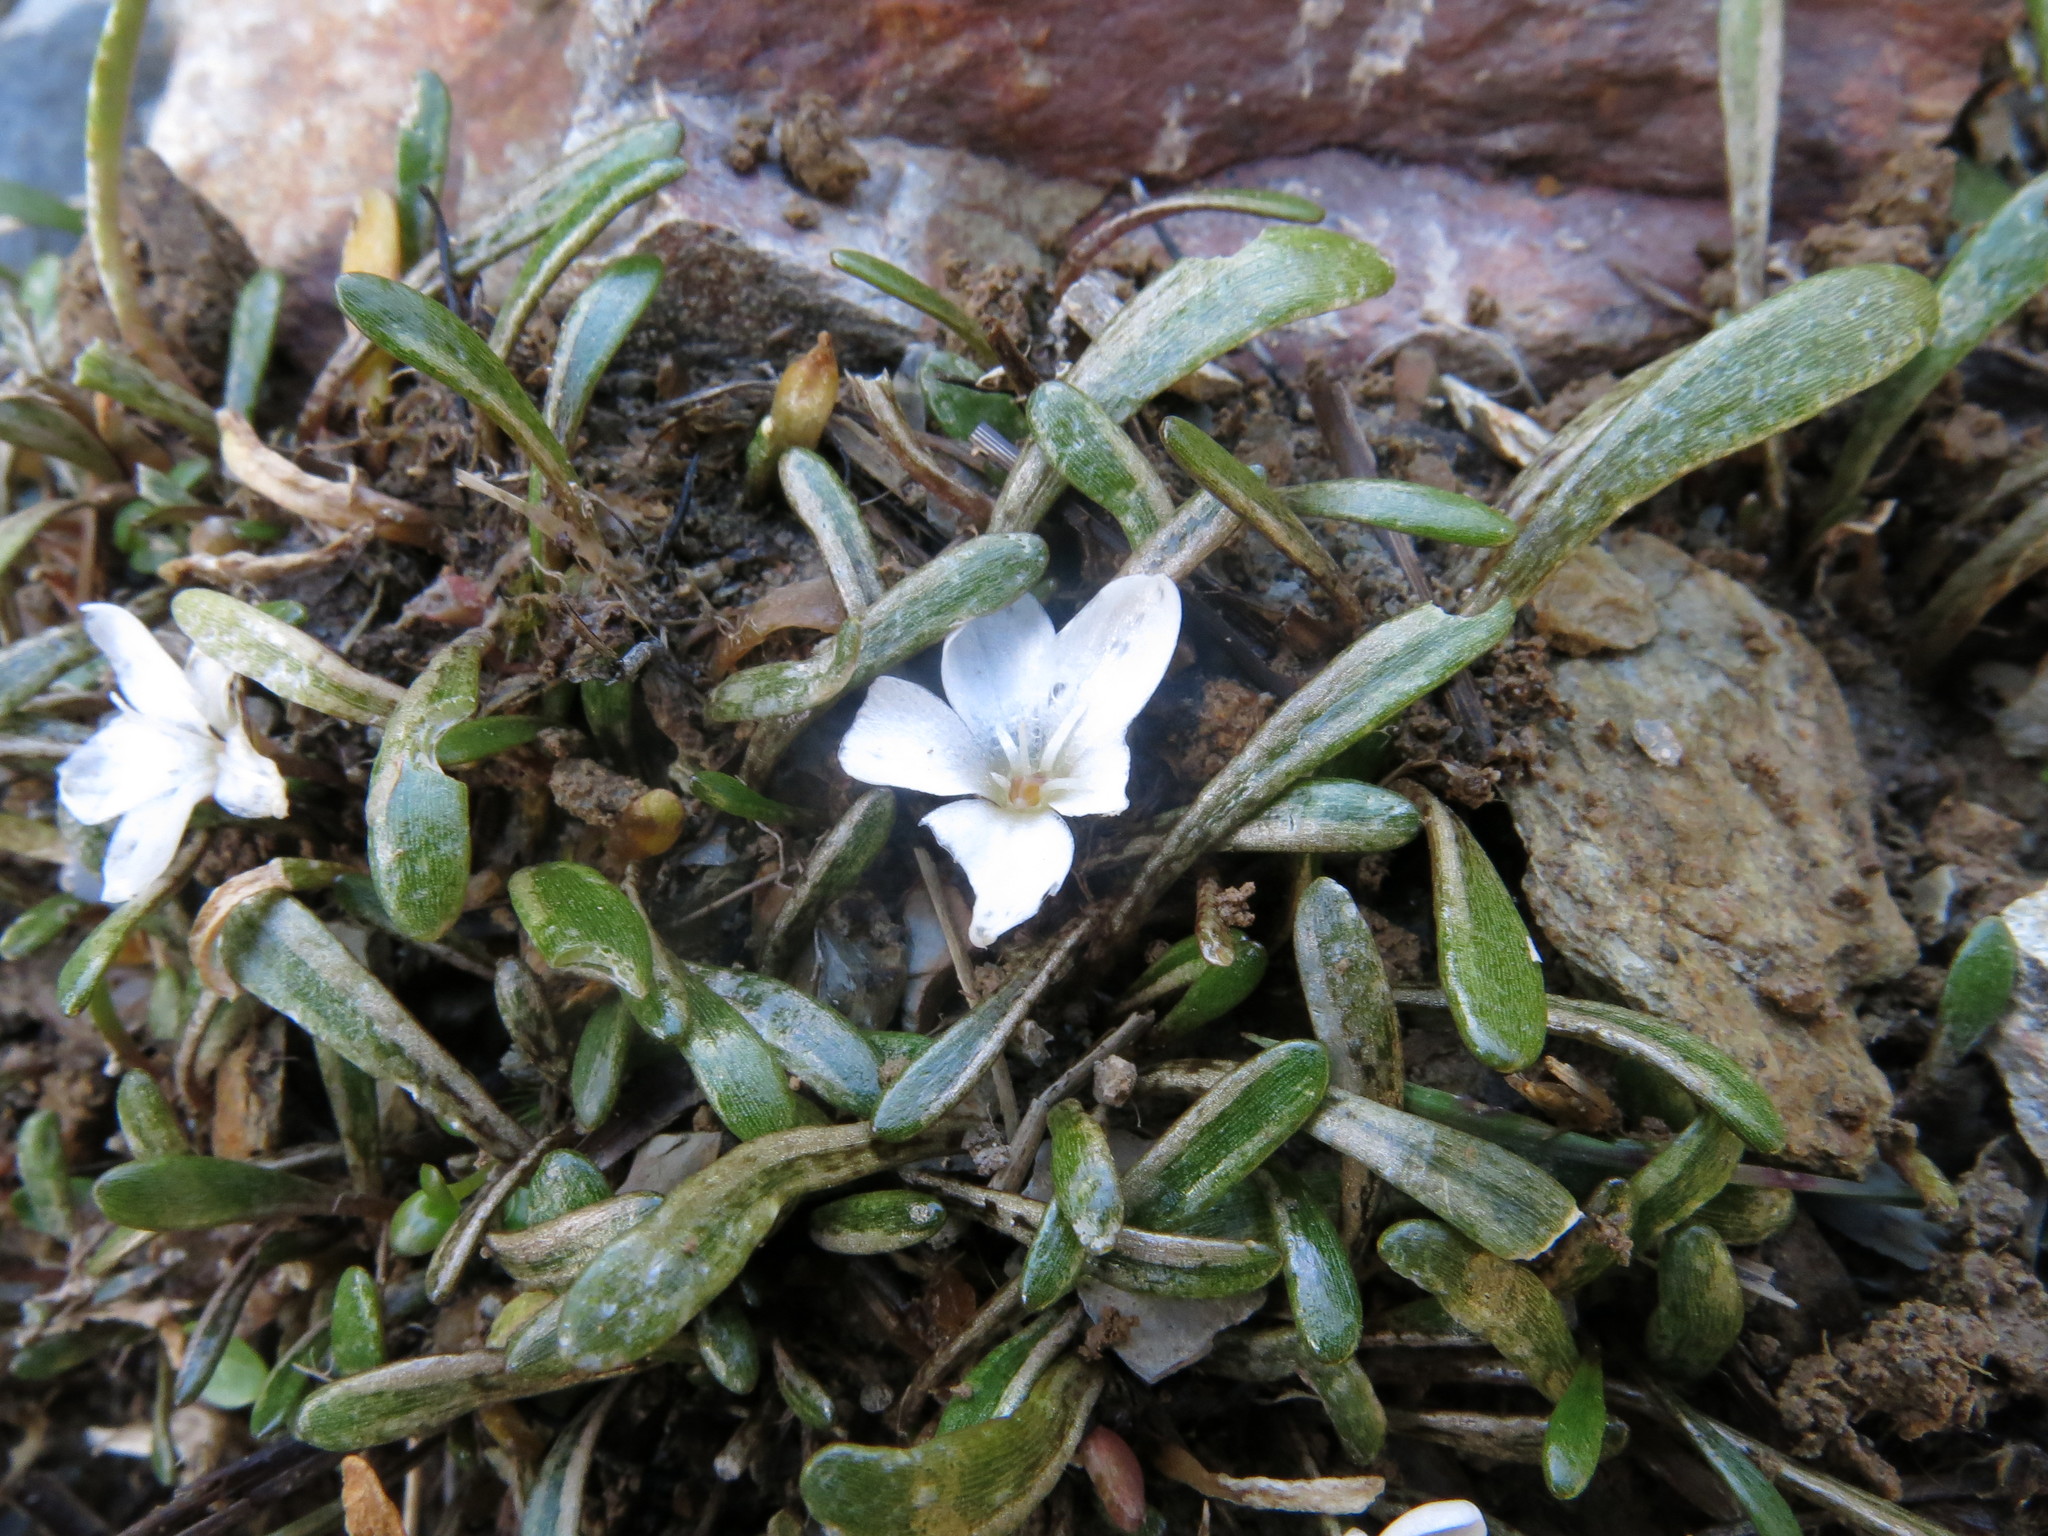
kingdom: Plantae
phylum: Tracheophyta
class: Magnoliopsida
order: Caryophyllales
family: Montiaceae
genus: Montia
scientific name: Montia sessiliflora
